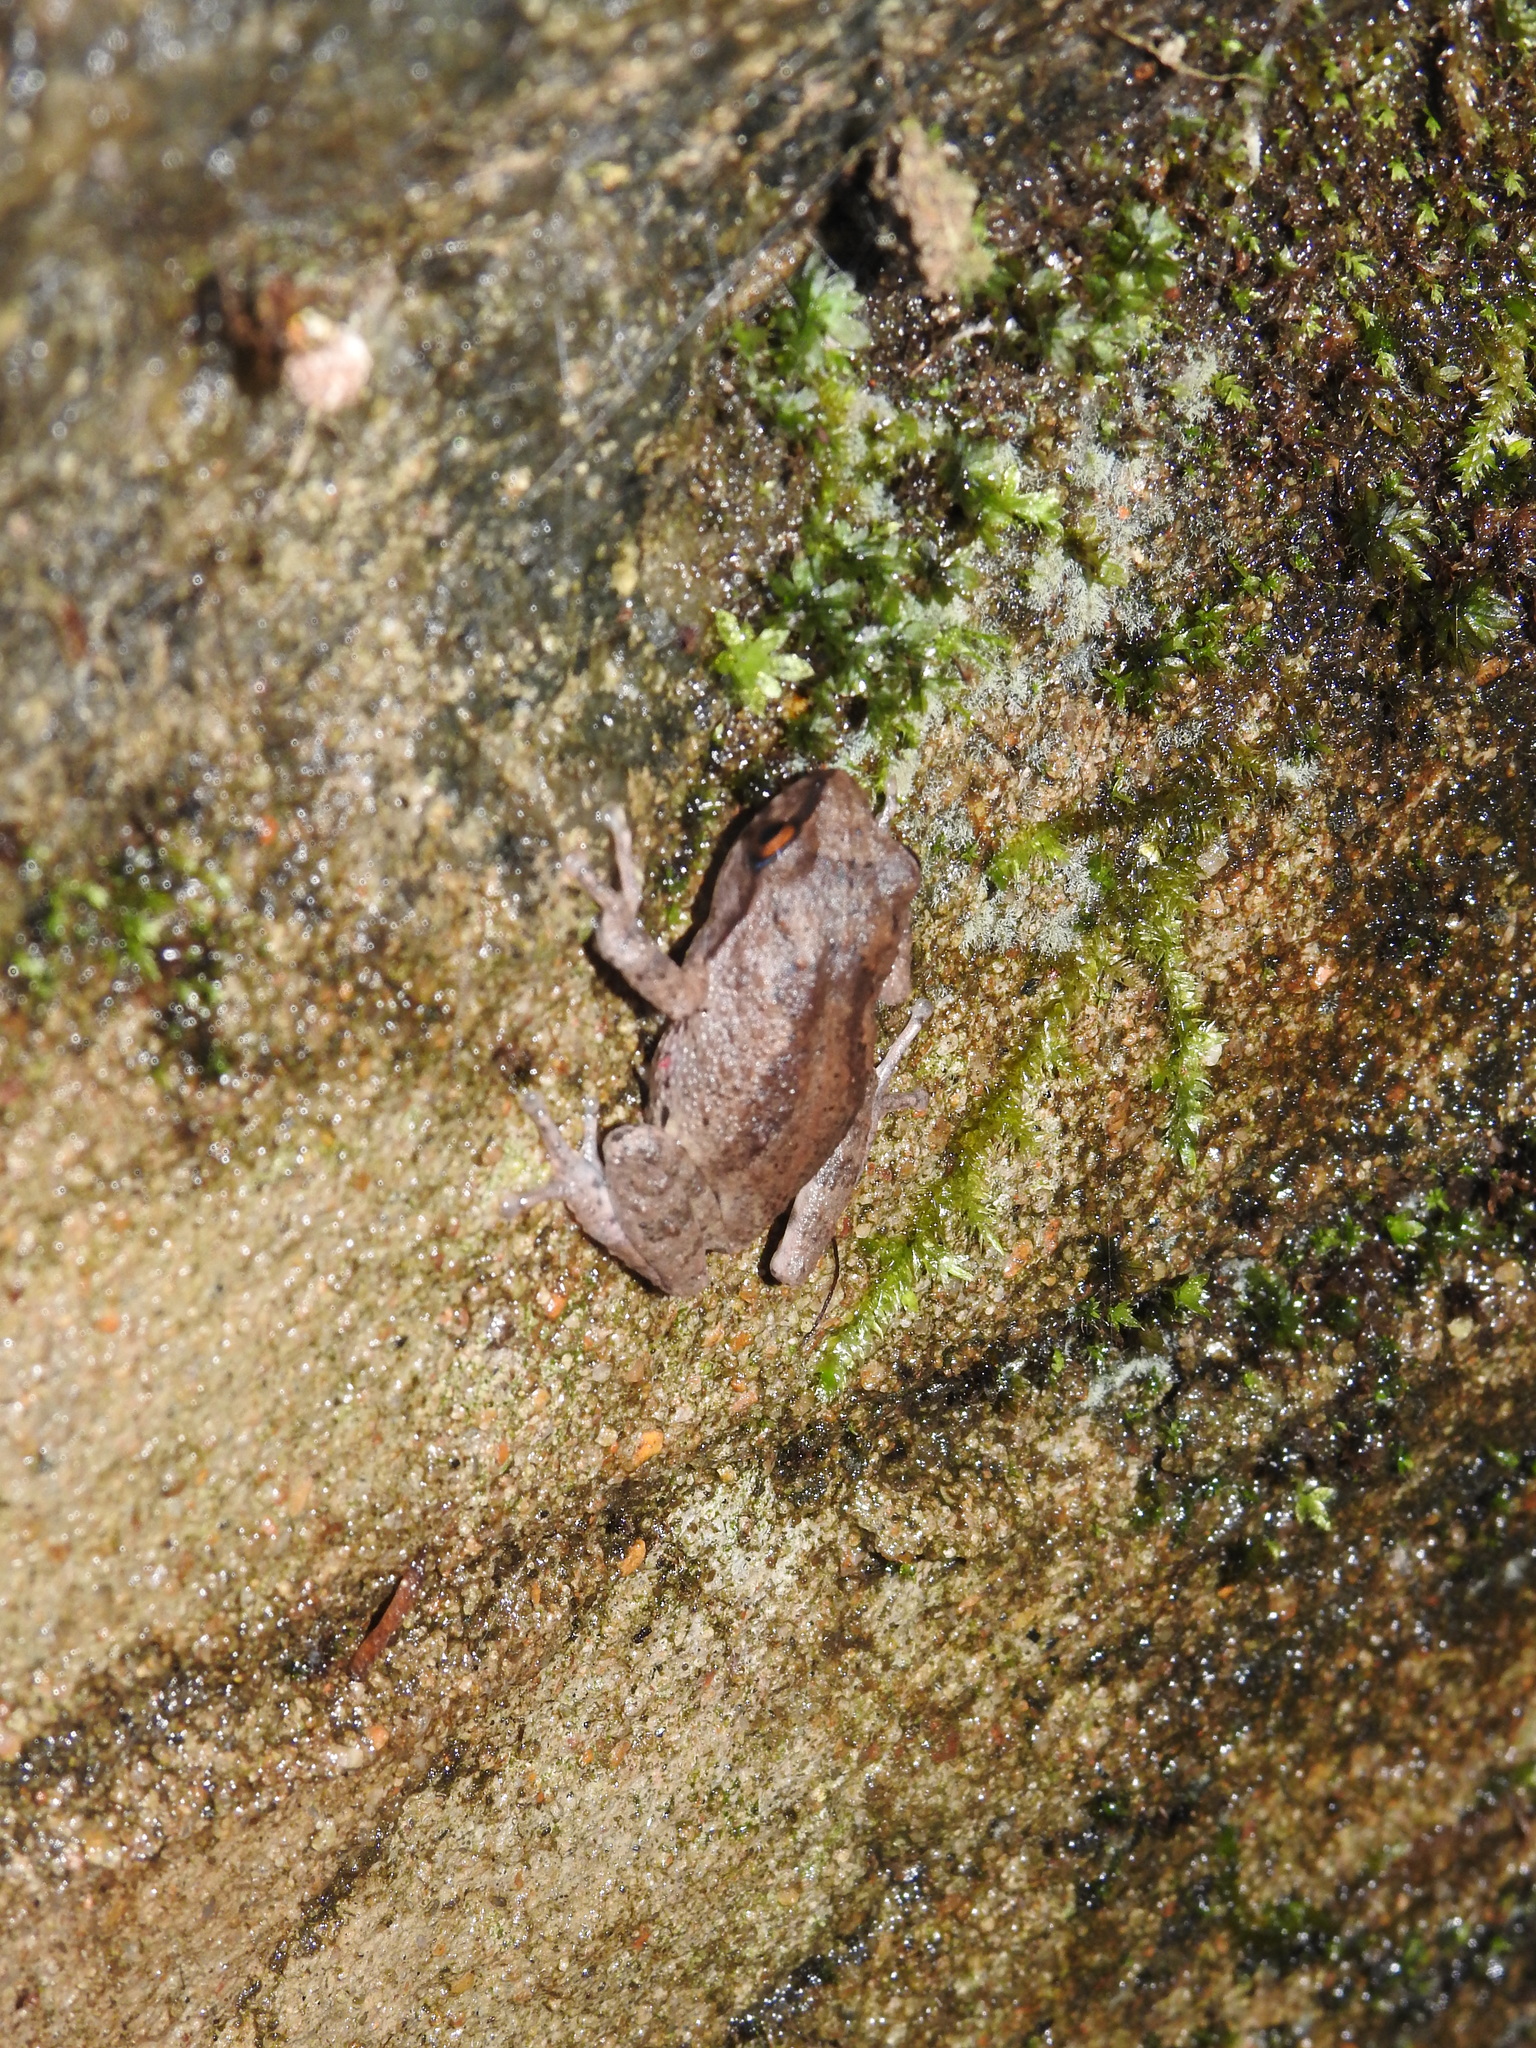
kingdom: Animalia
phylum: Chordata
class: Amphibia
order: Anura
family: Rhacophoridae
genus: Raorchestes
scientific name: Raorchestes dubois
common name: Koadaikanal bush frog
